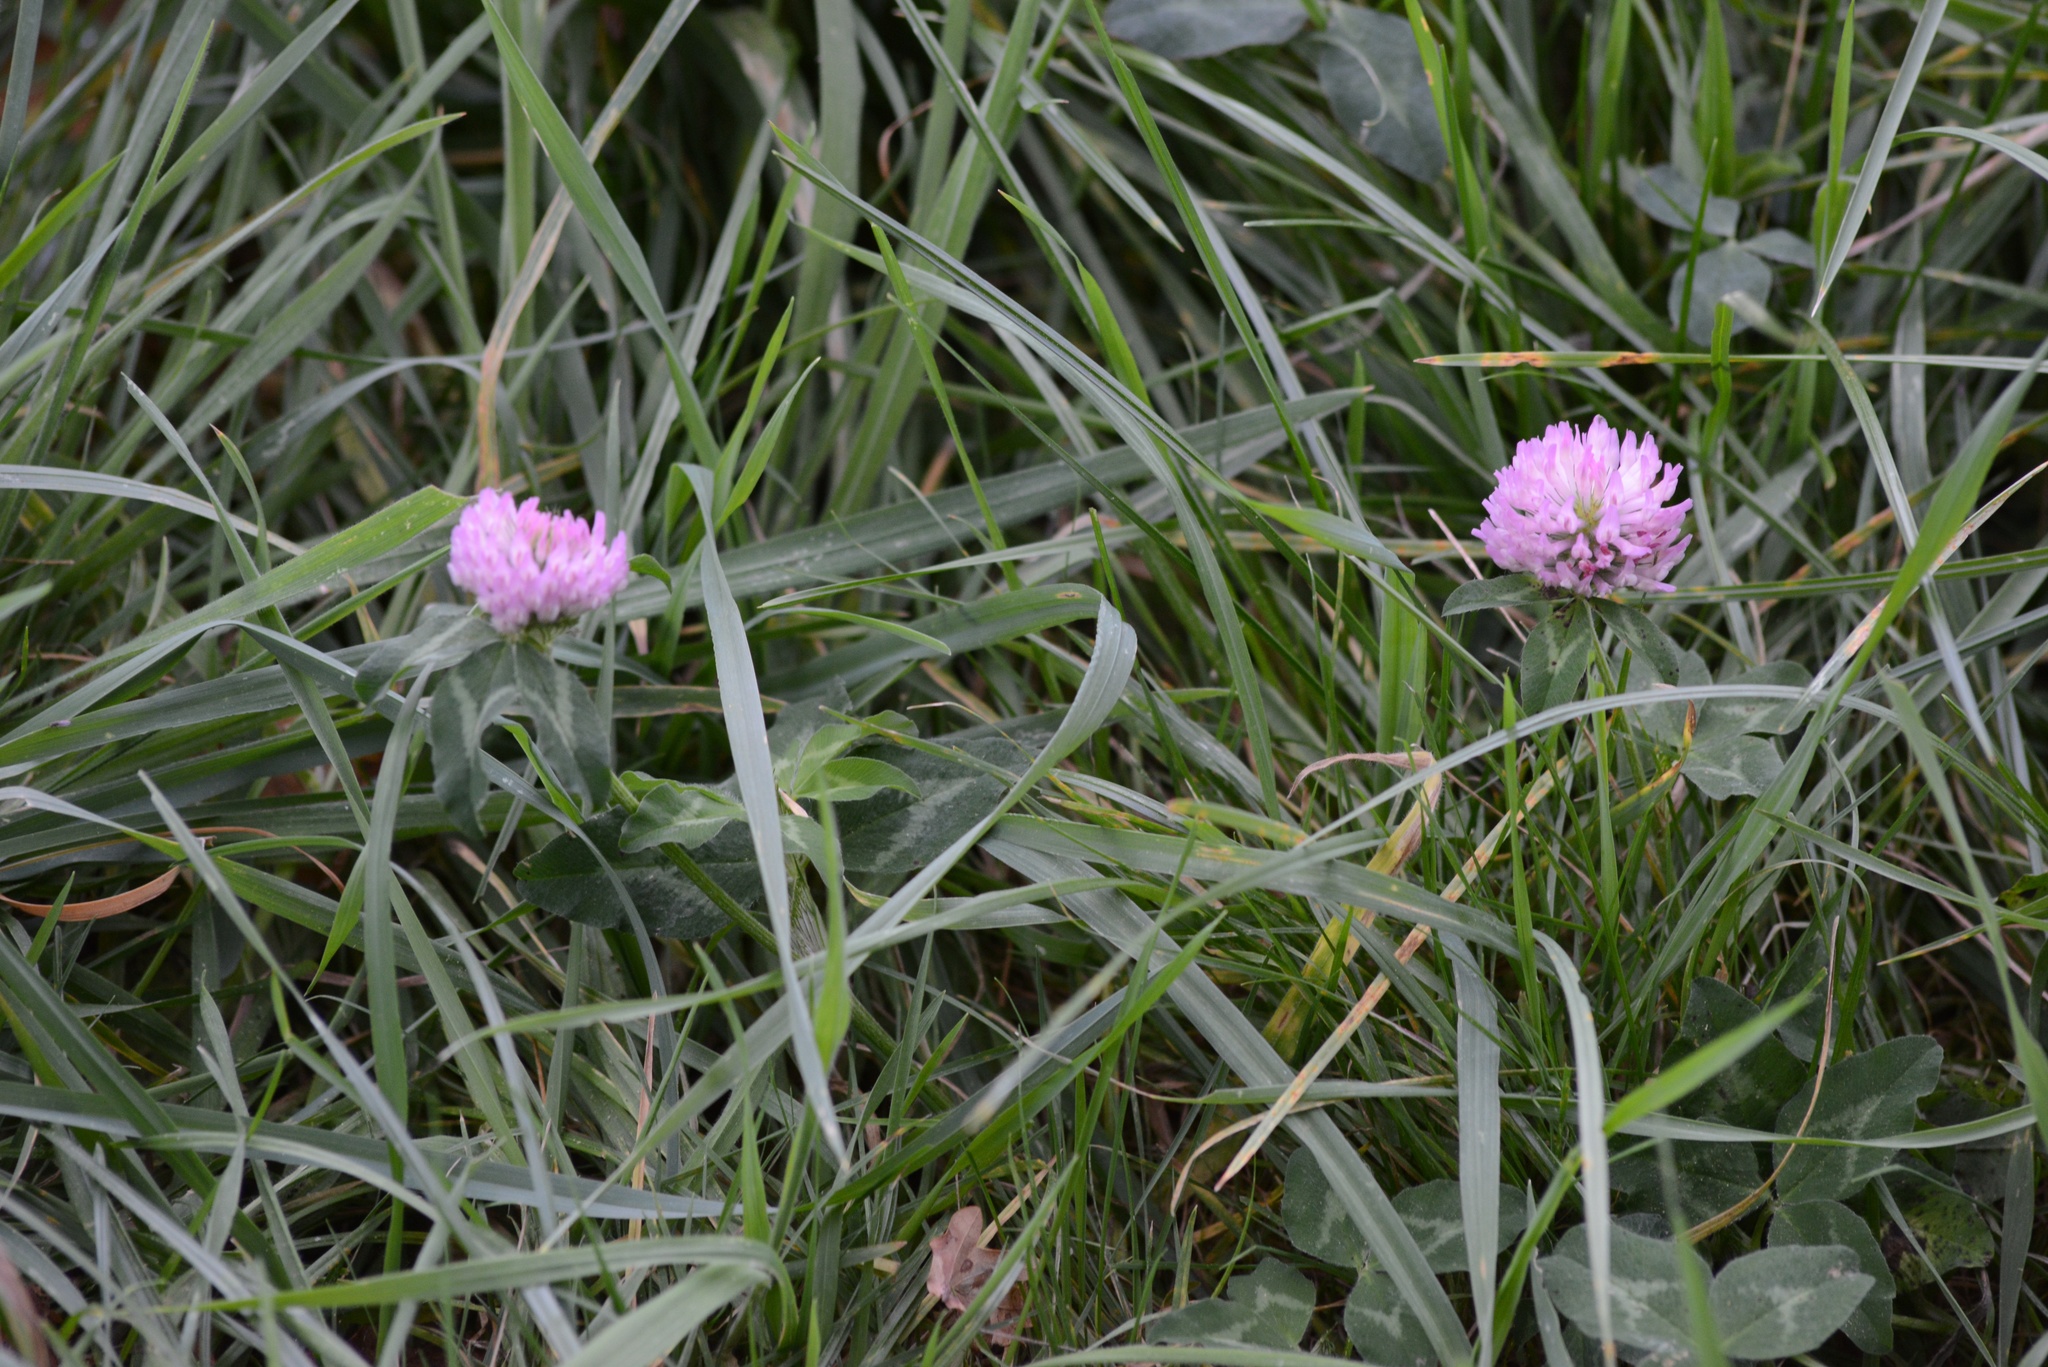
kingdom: Plantae
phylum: Tracheophyta
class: Magnoliopsida
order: Fabales
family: Fabaceae
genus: Trifolium
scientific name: Trifolium pratense
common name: Red clover
